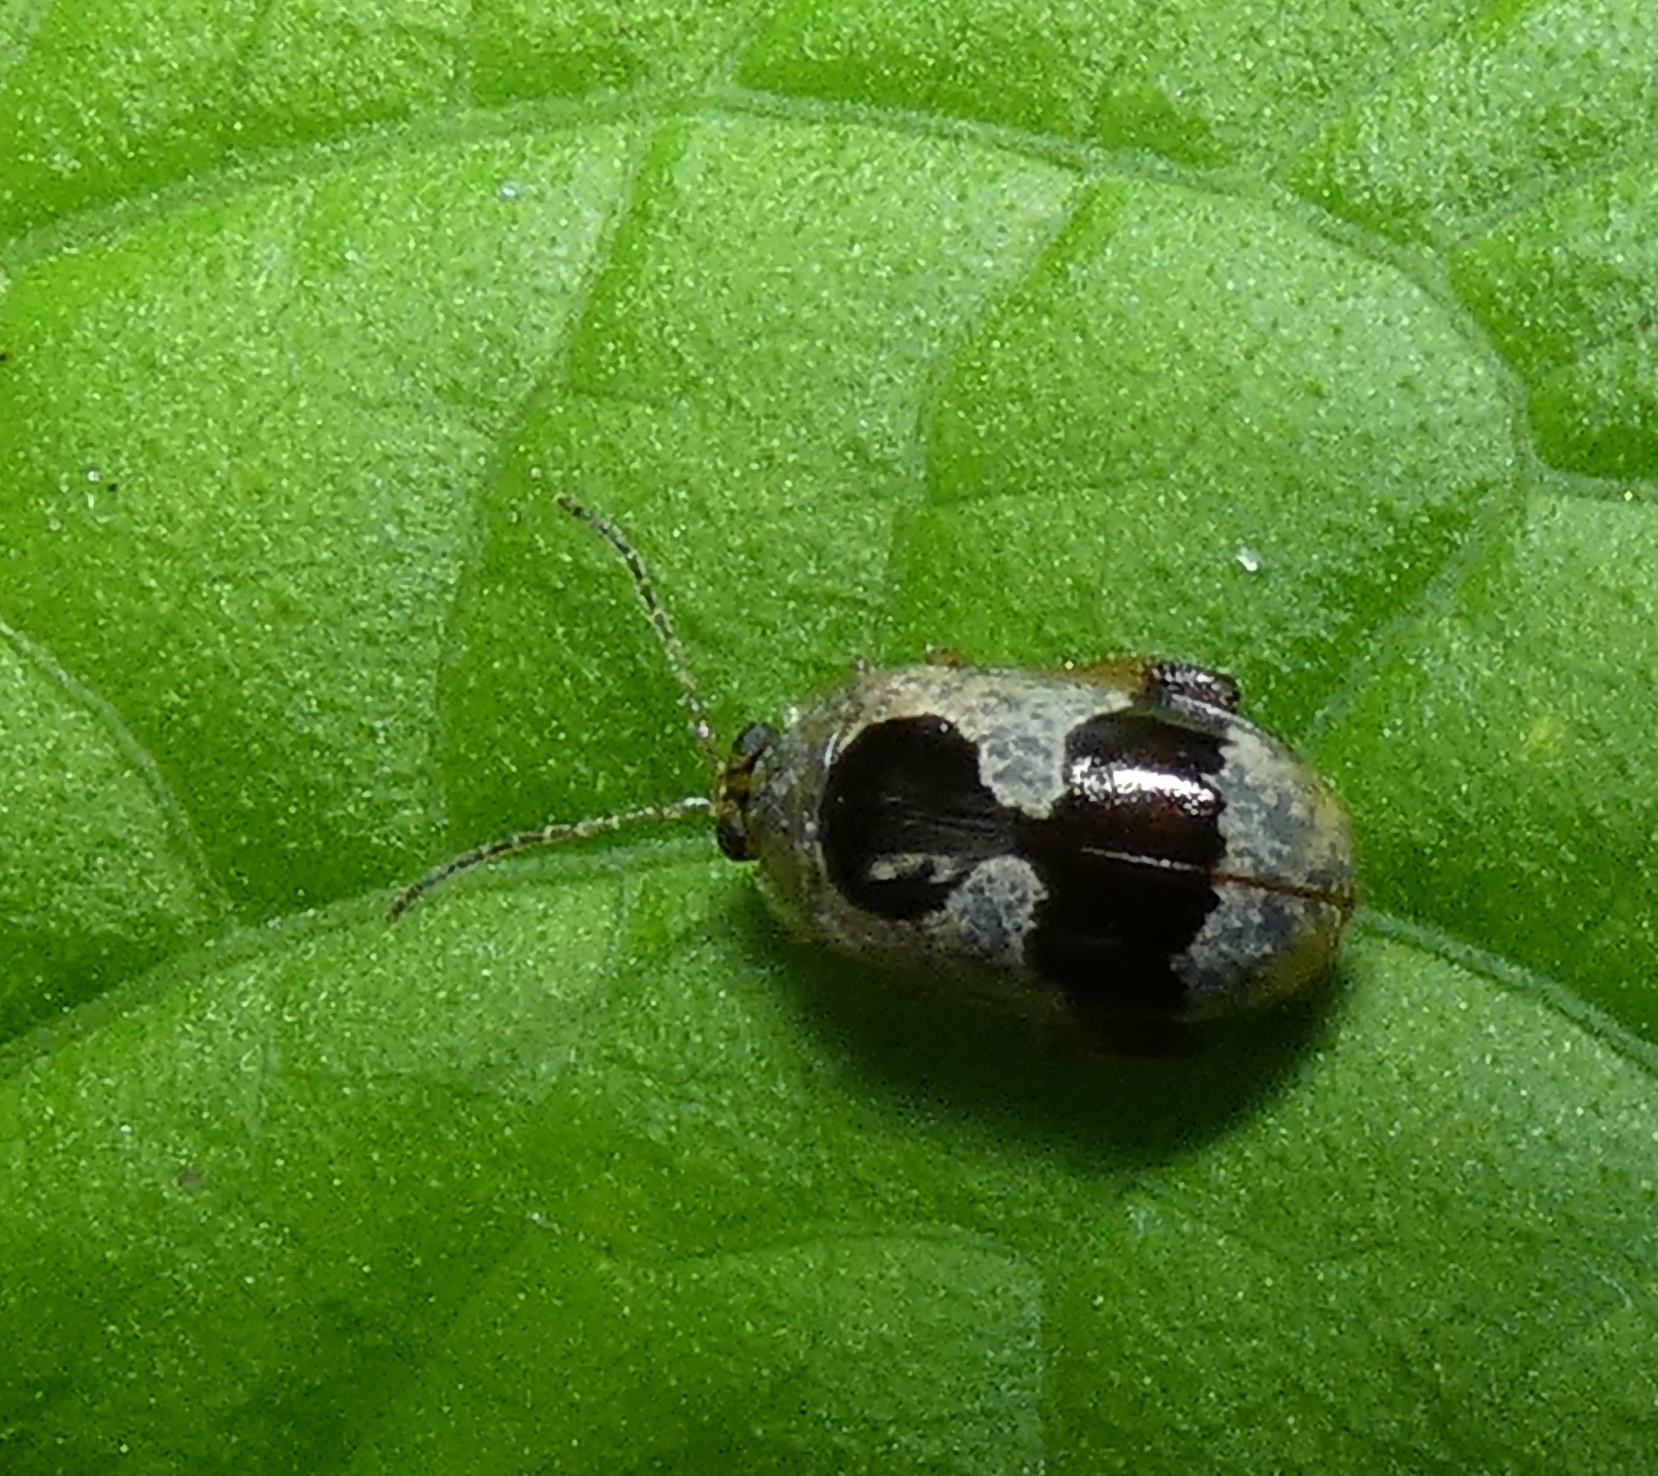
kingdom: Animalia
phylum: Arthropoda
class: Insecta
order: Coleoptera
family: Chrysomelidae
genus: Alagoasa
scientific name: Alagoasa
